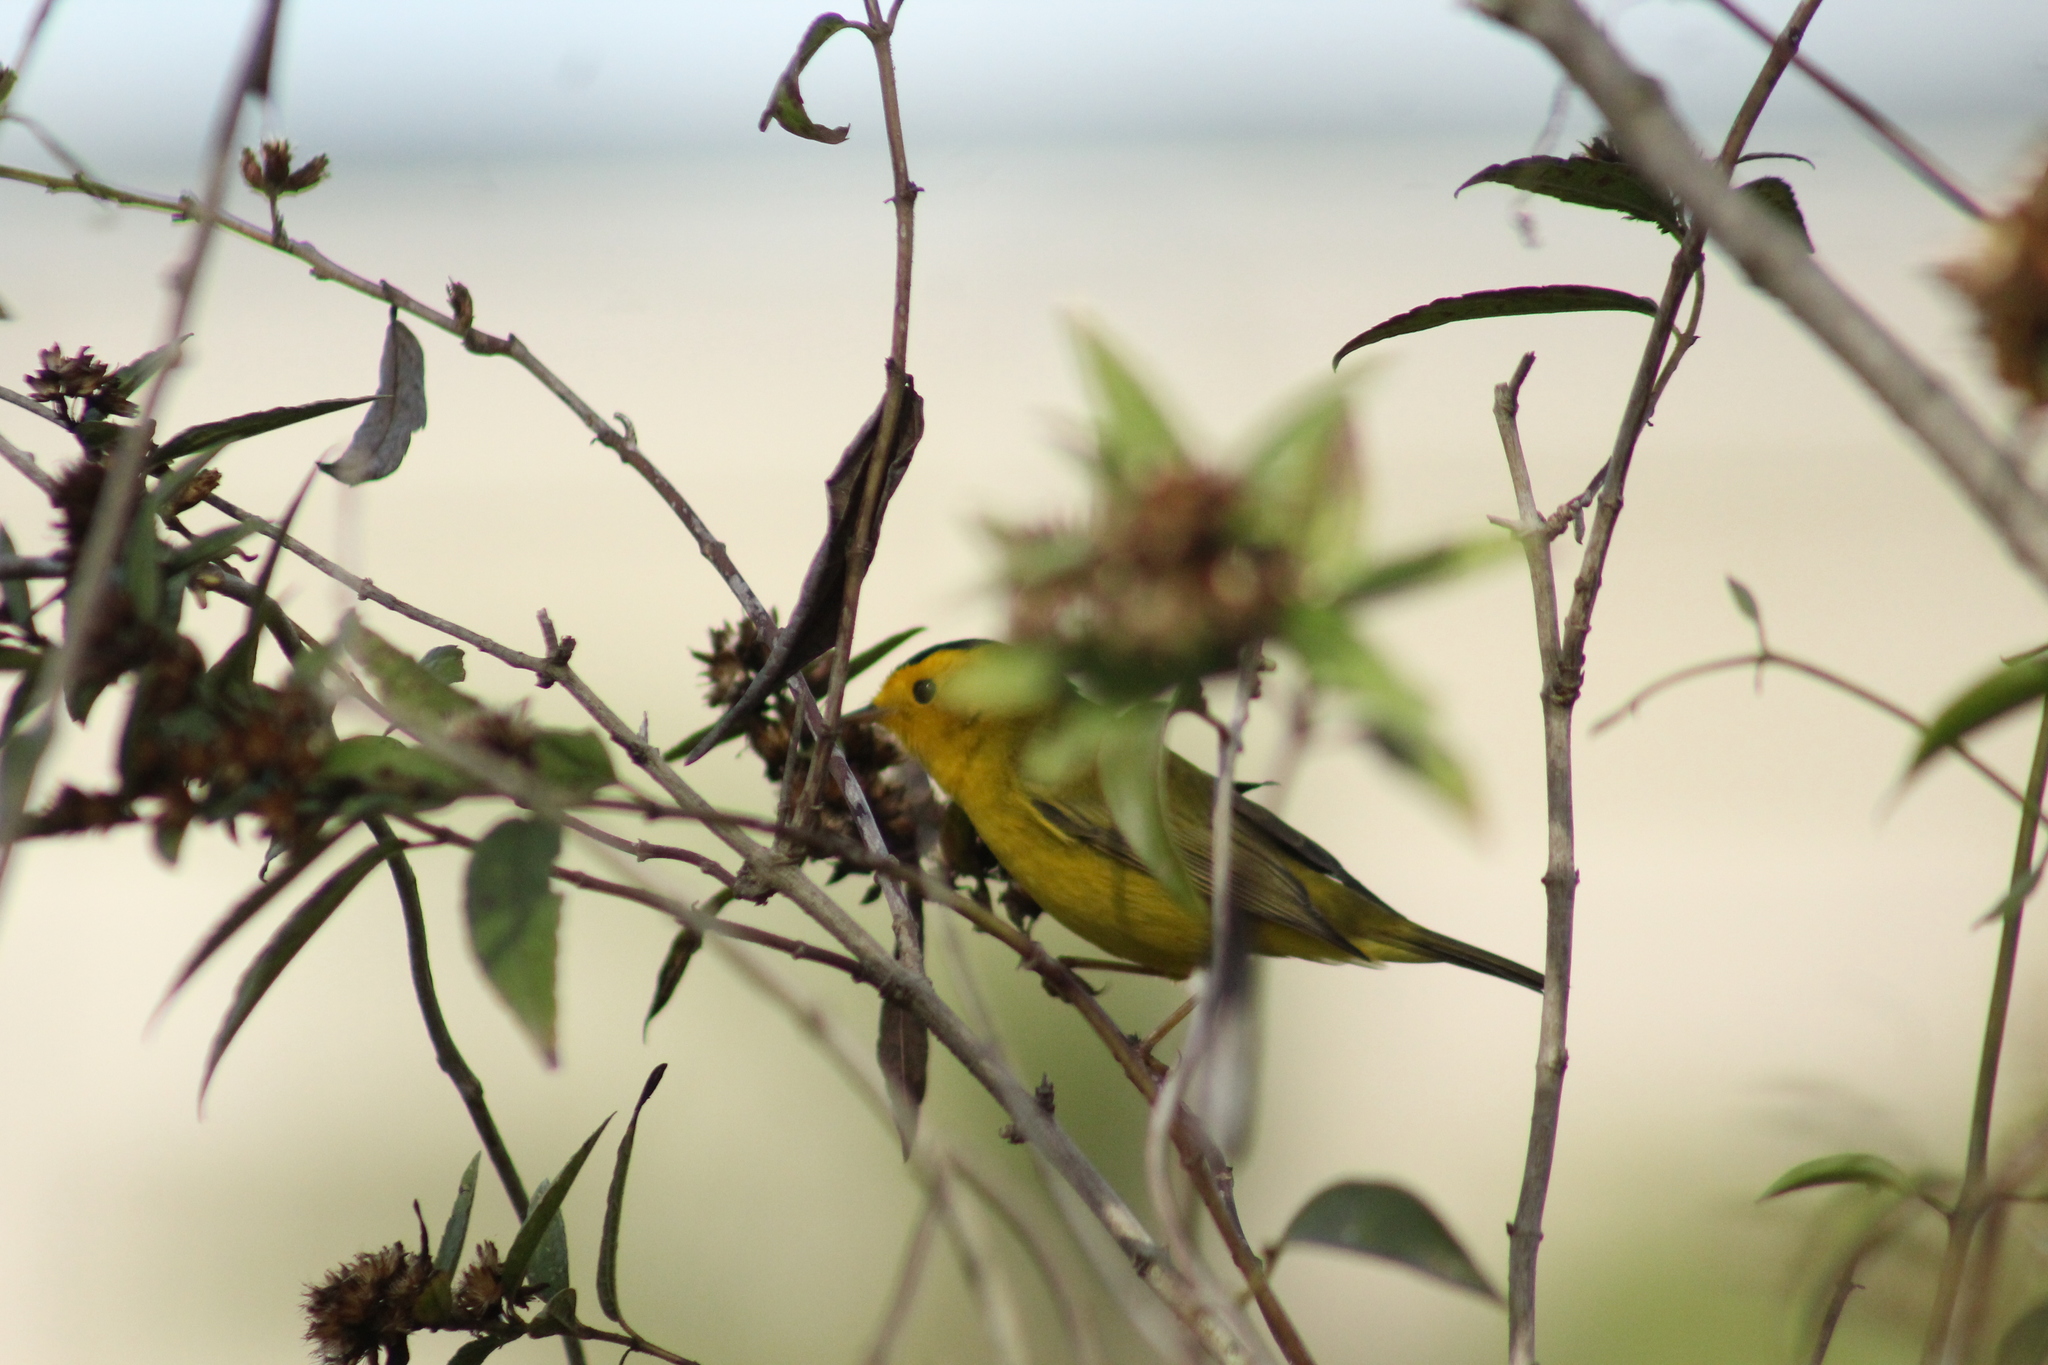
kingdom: Animalia
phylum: Chordata
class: Aves
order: Passeriformes
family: Parulidae
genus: Cardellina
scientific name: Cardellina pusilla
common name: Wilson's warbler
